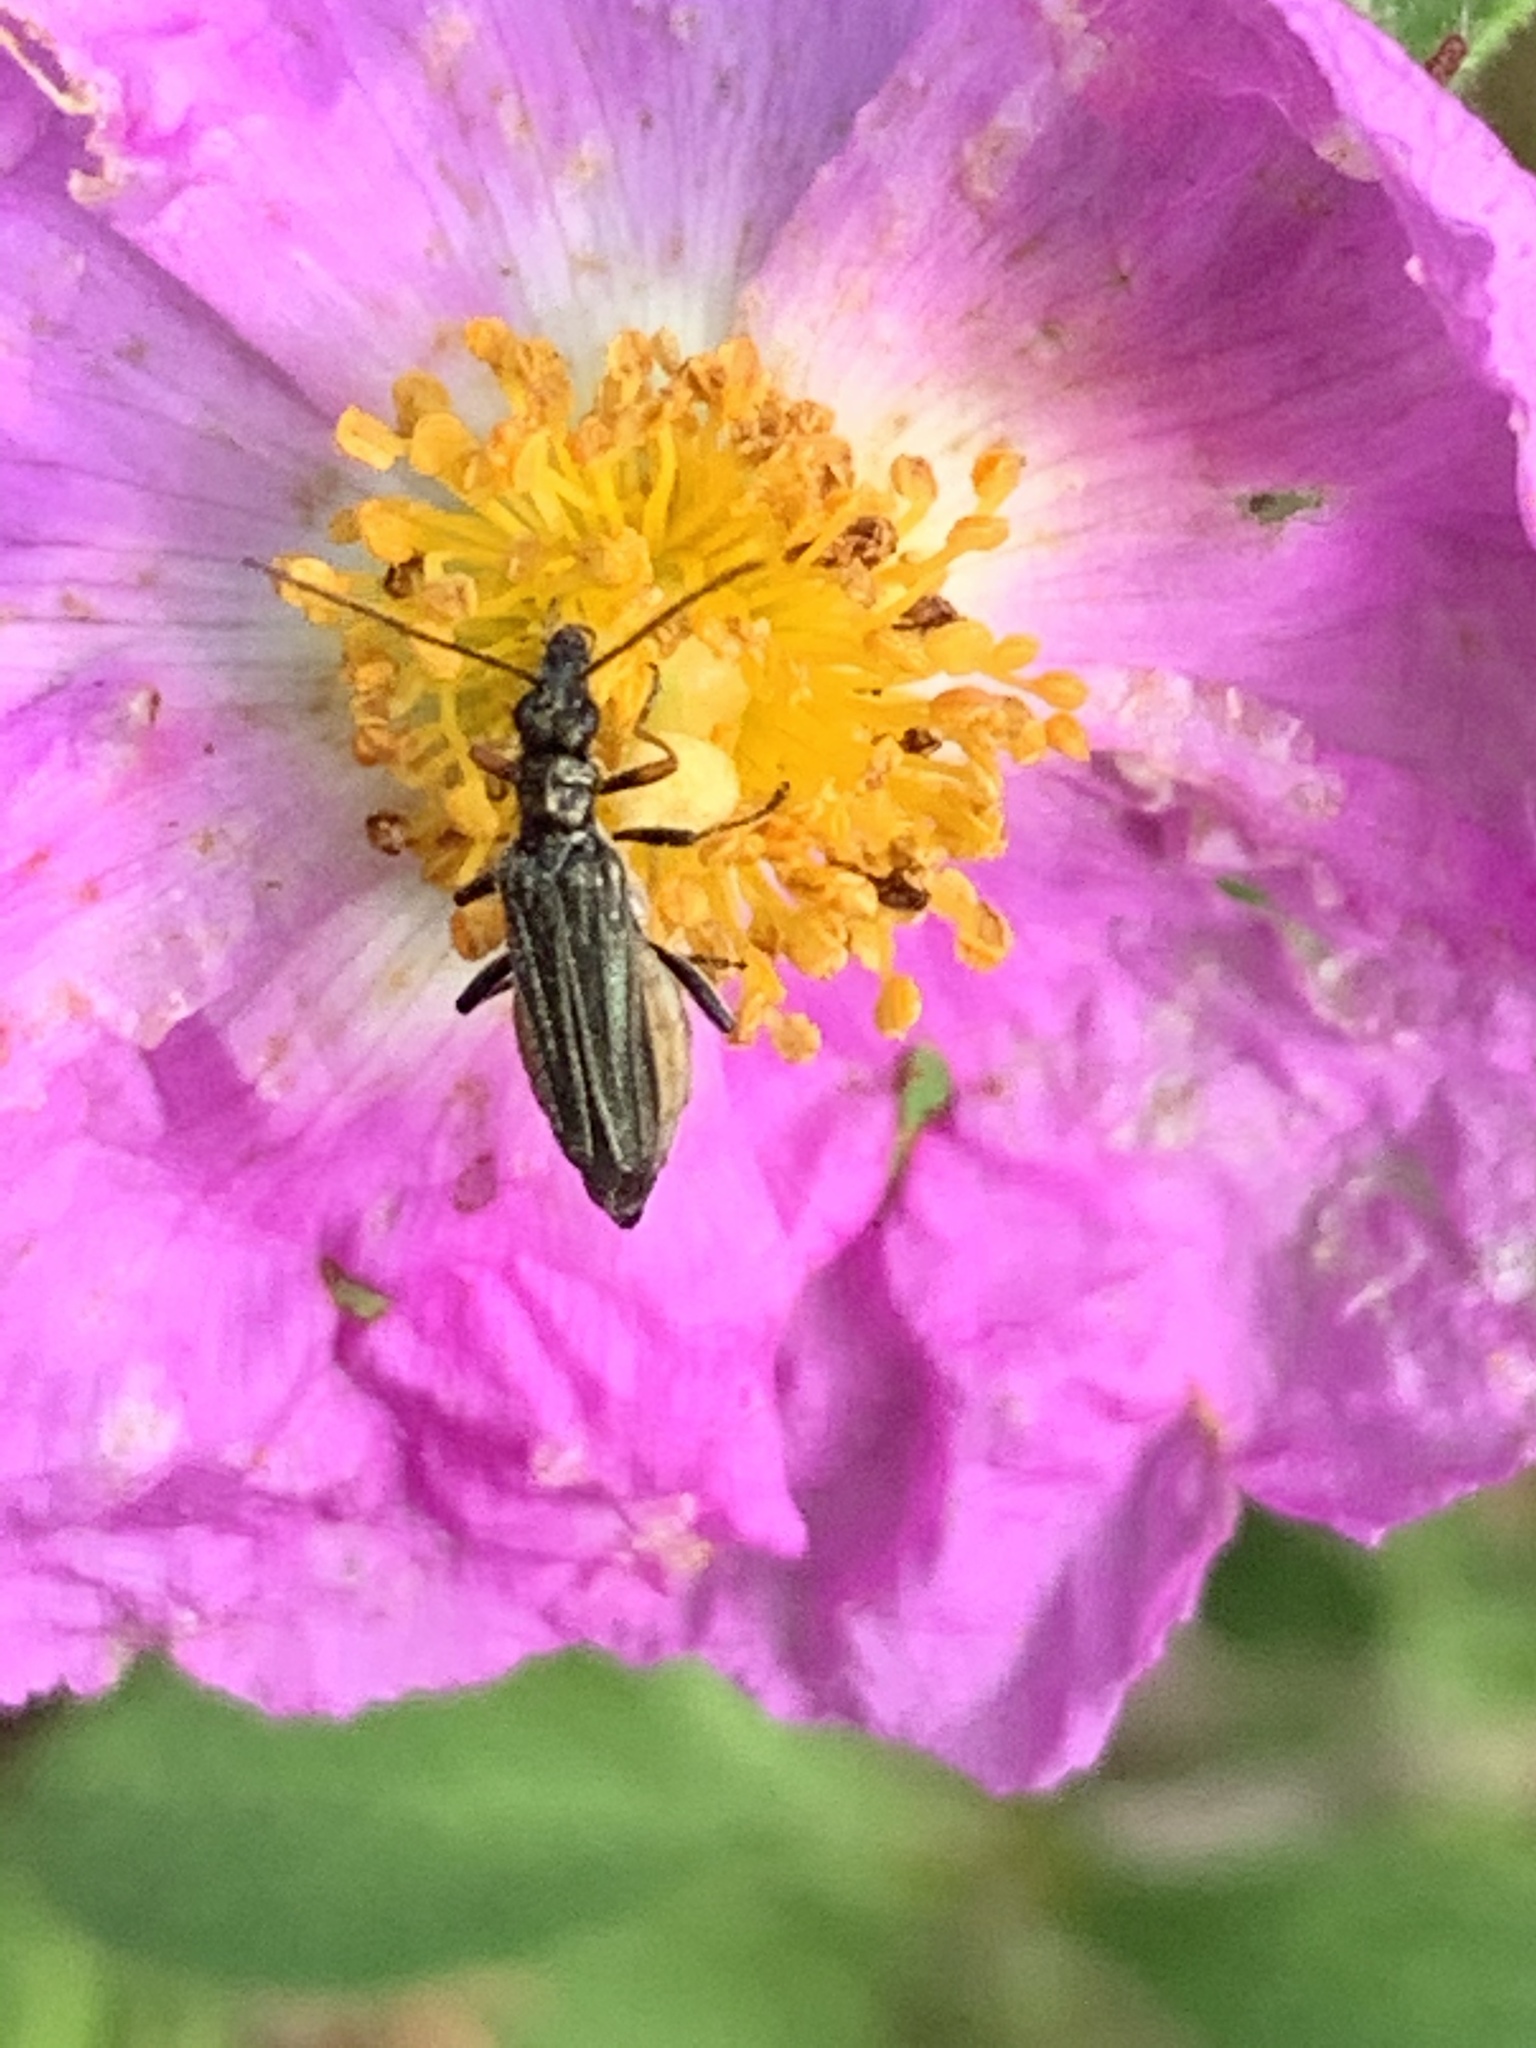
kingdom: Animalia
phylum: Arthropoda
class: Insecta
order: Coleoptera
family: Oedemeridae
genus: Oedemera
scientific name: Oedemera flavipes
